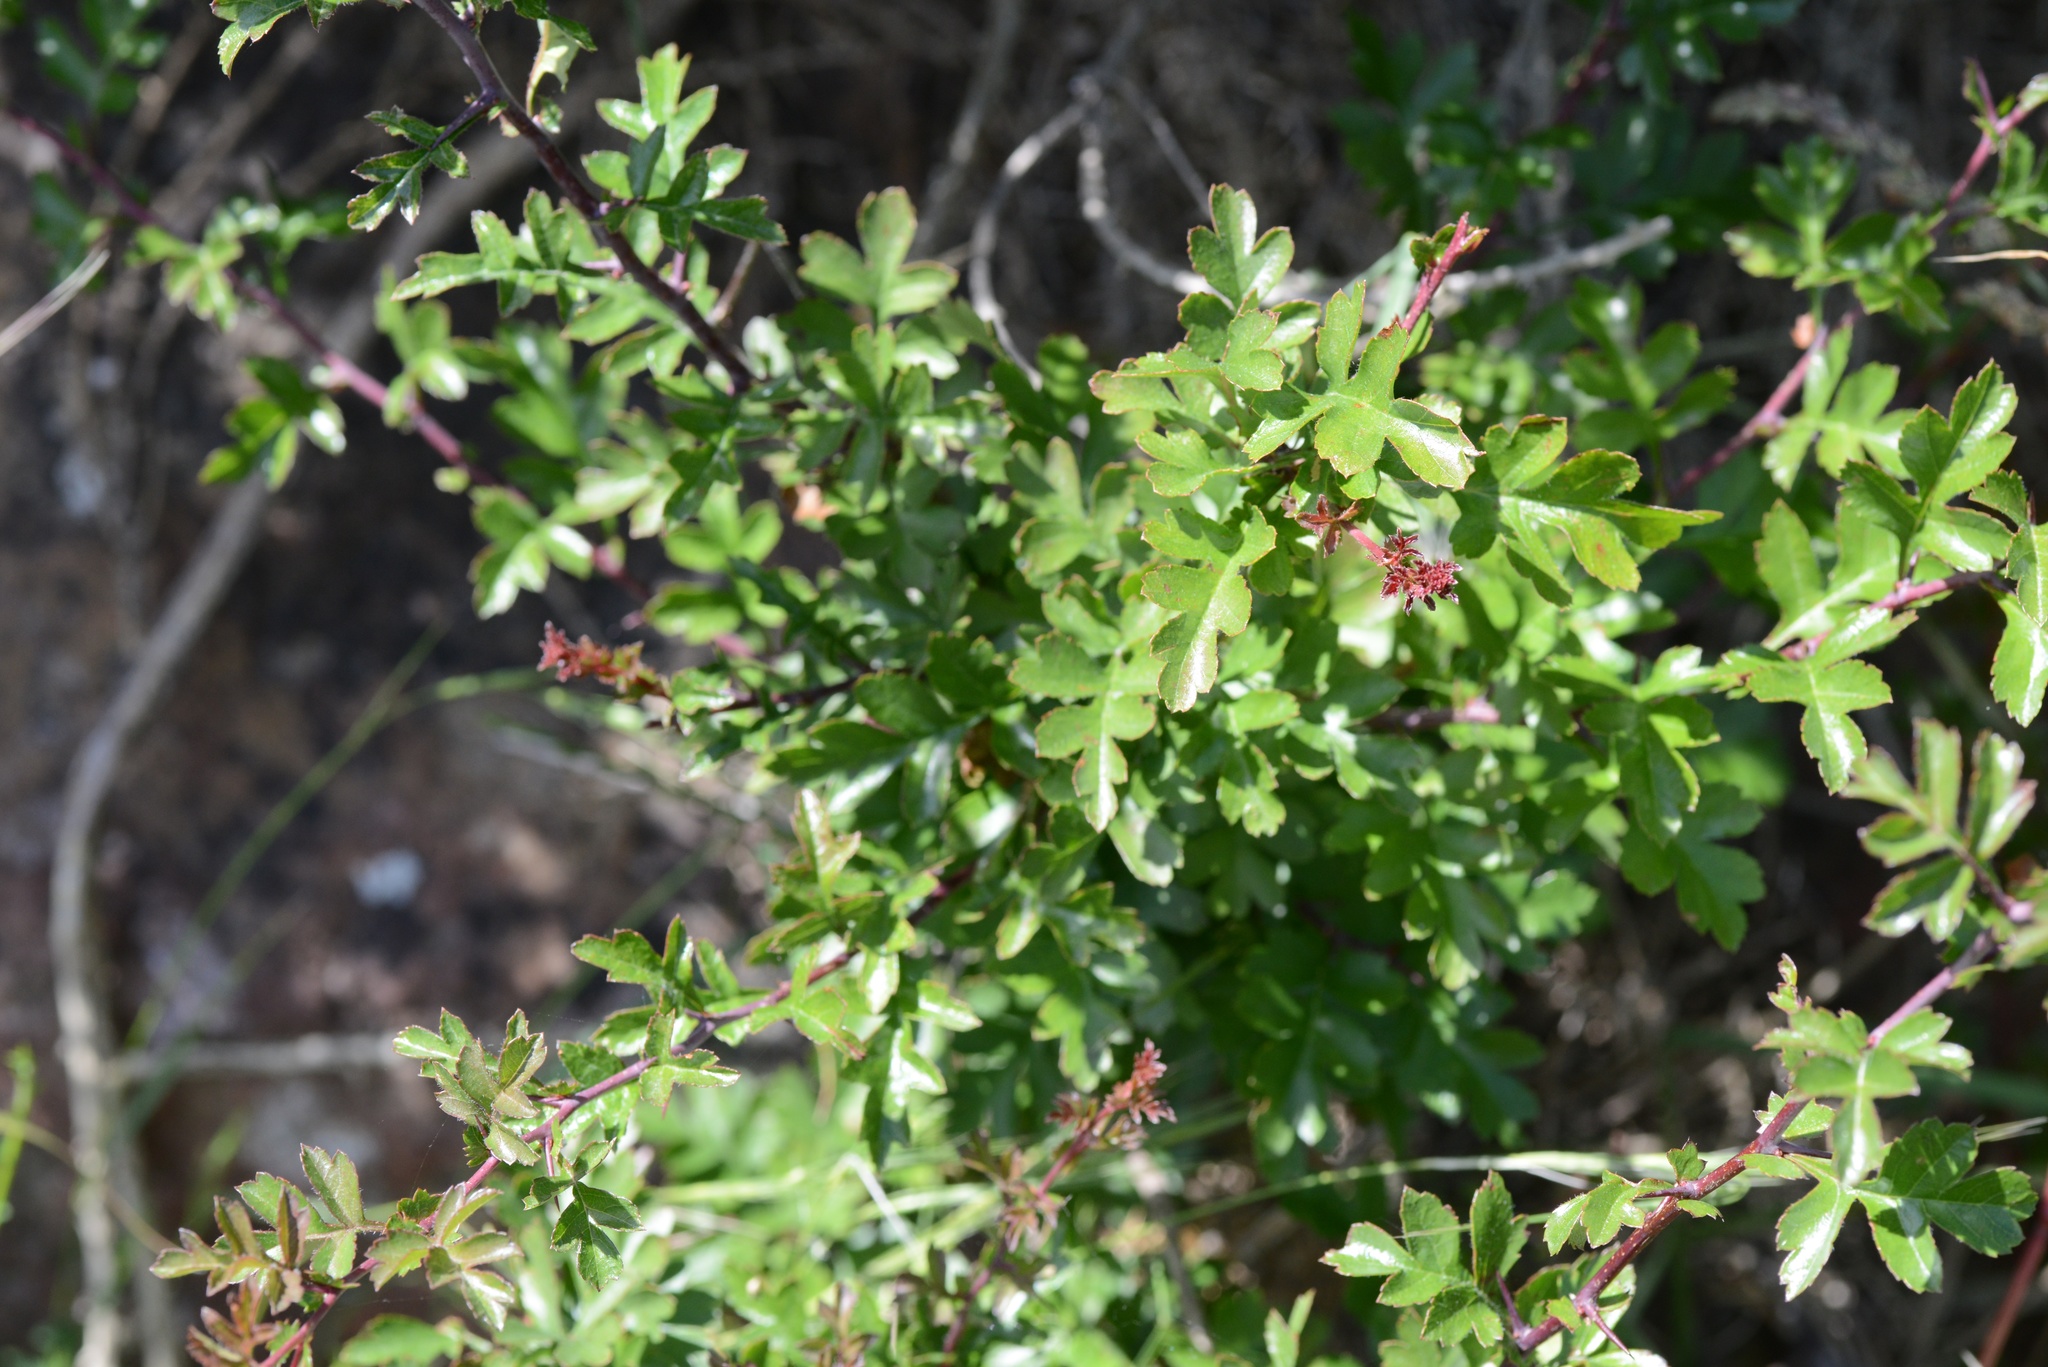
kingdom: Plantae
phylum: Tracheophyta
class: Magnoliopsida
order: Rosales
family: Rosaceae
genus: Crataegus
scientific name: Crataegus monogyna
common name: Hawthorn
